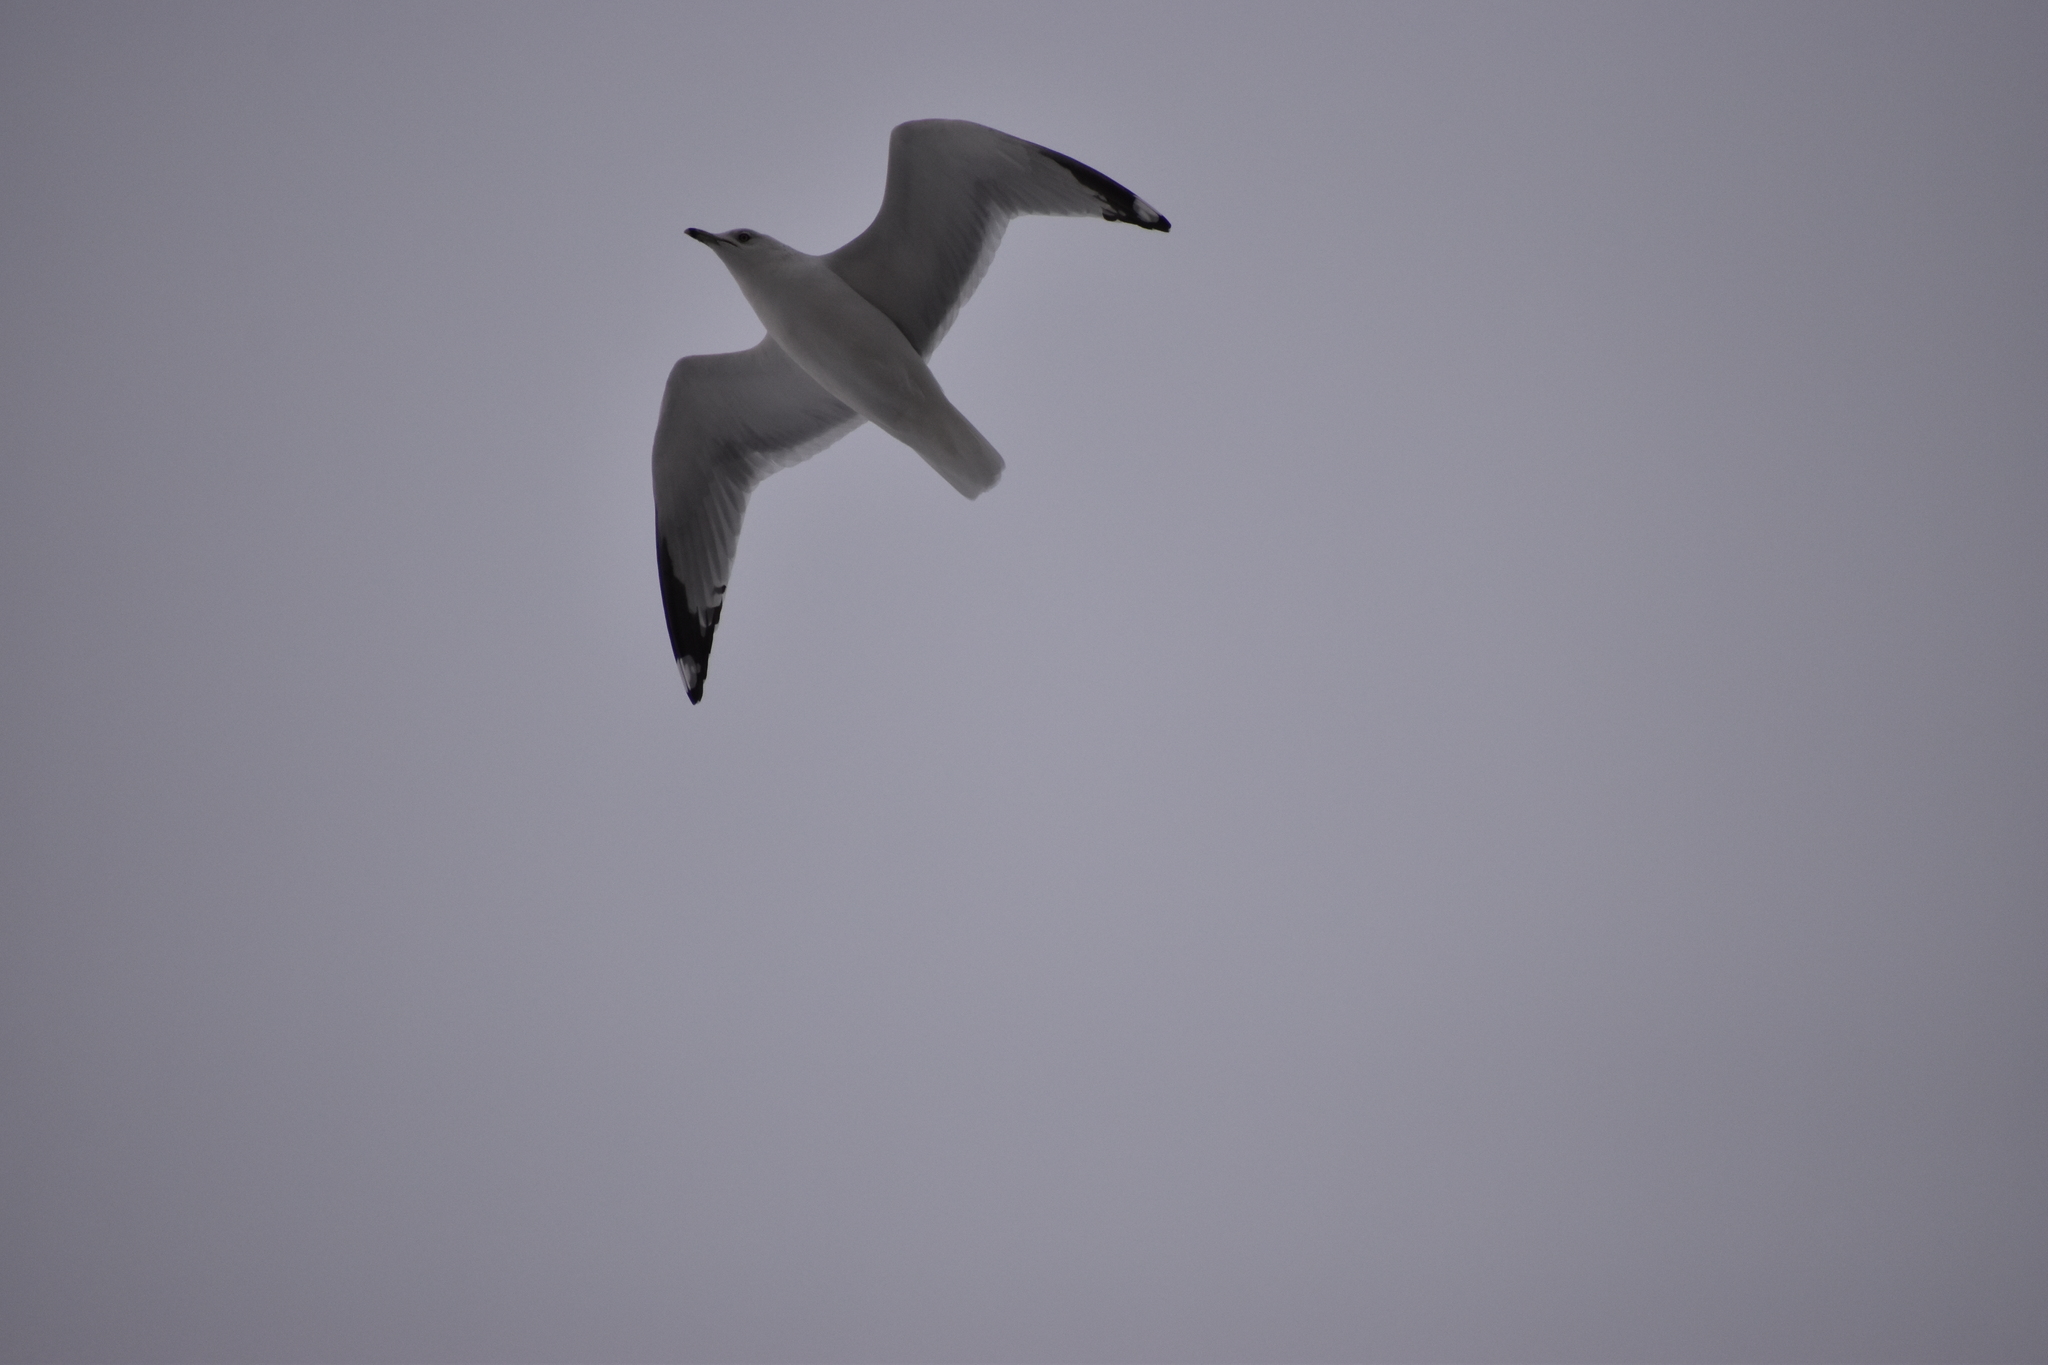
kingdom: Animalia
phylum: Chordata
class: Aves
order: Charadriiformes
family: Laridae
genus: Larus
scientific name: Larus delawarensis
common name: Ring-billed gull
